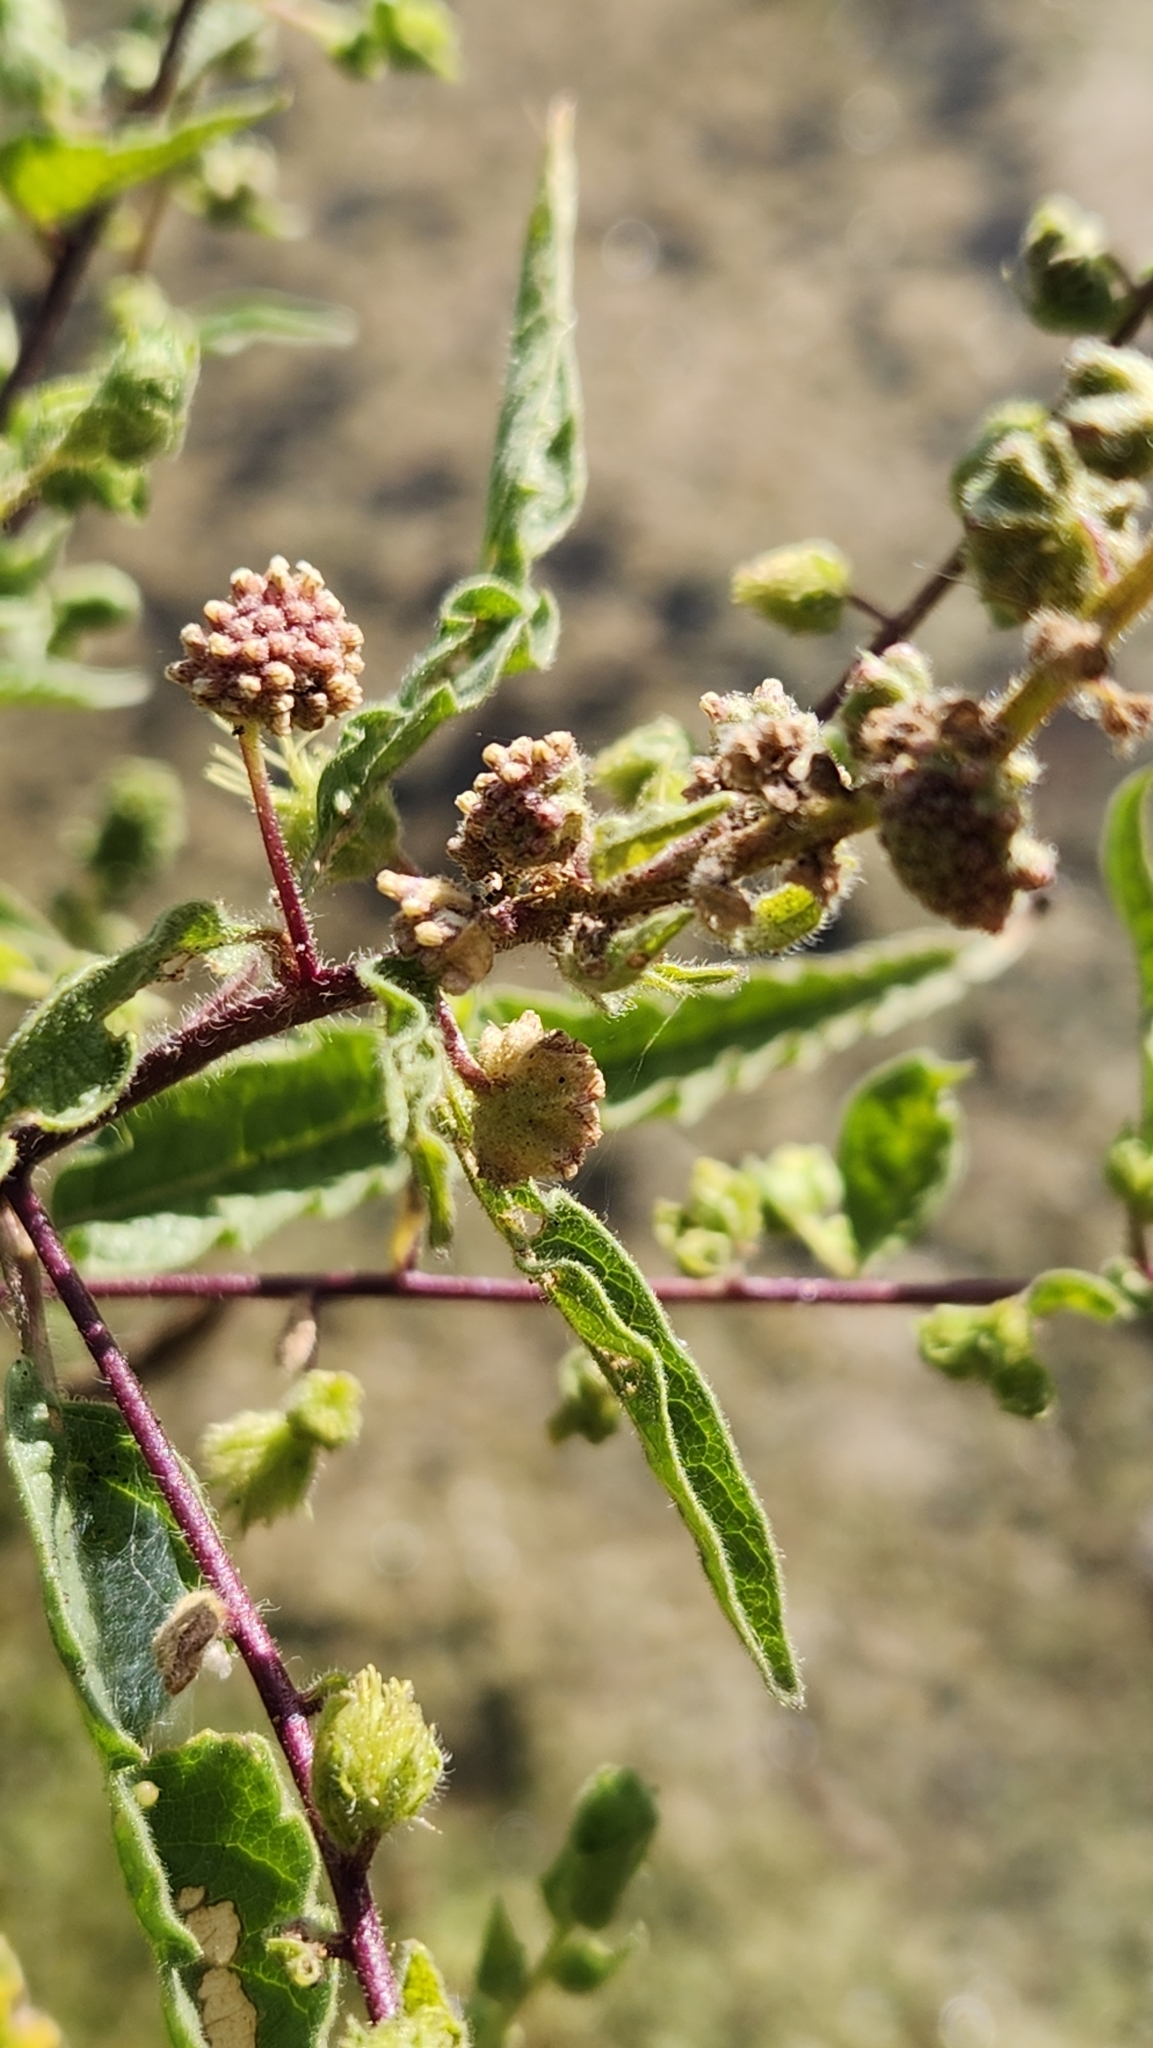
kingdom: Plantae
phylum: Tracheophyta
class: Magnoliopsida
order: Asterales
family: Asteraceae
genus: Ambrosia
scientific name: Ambrosia ambrosioides
